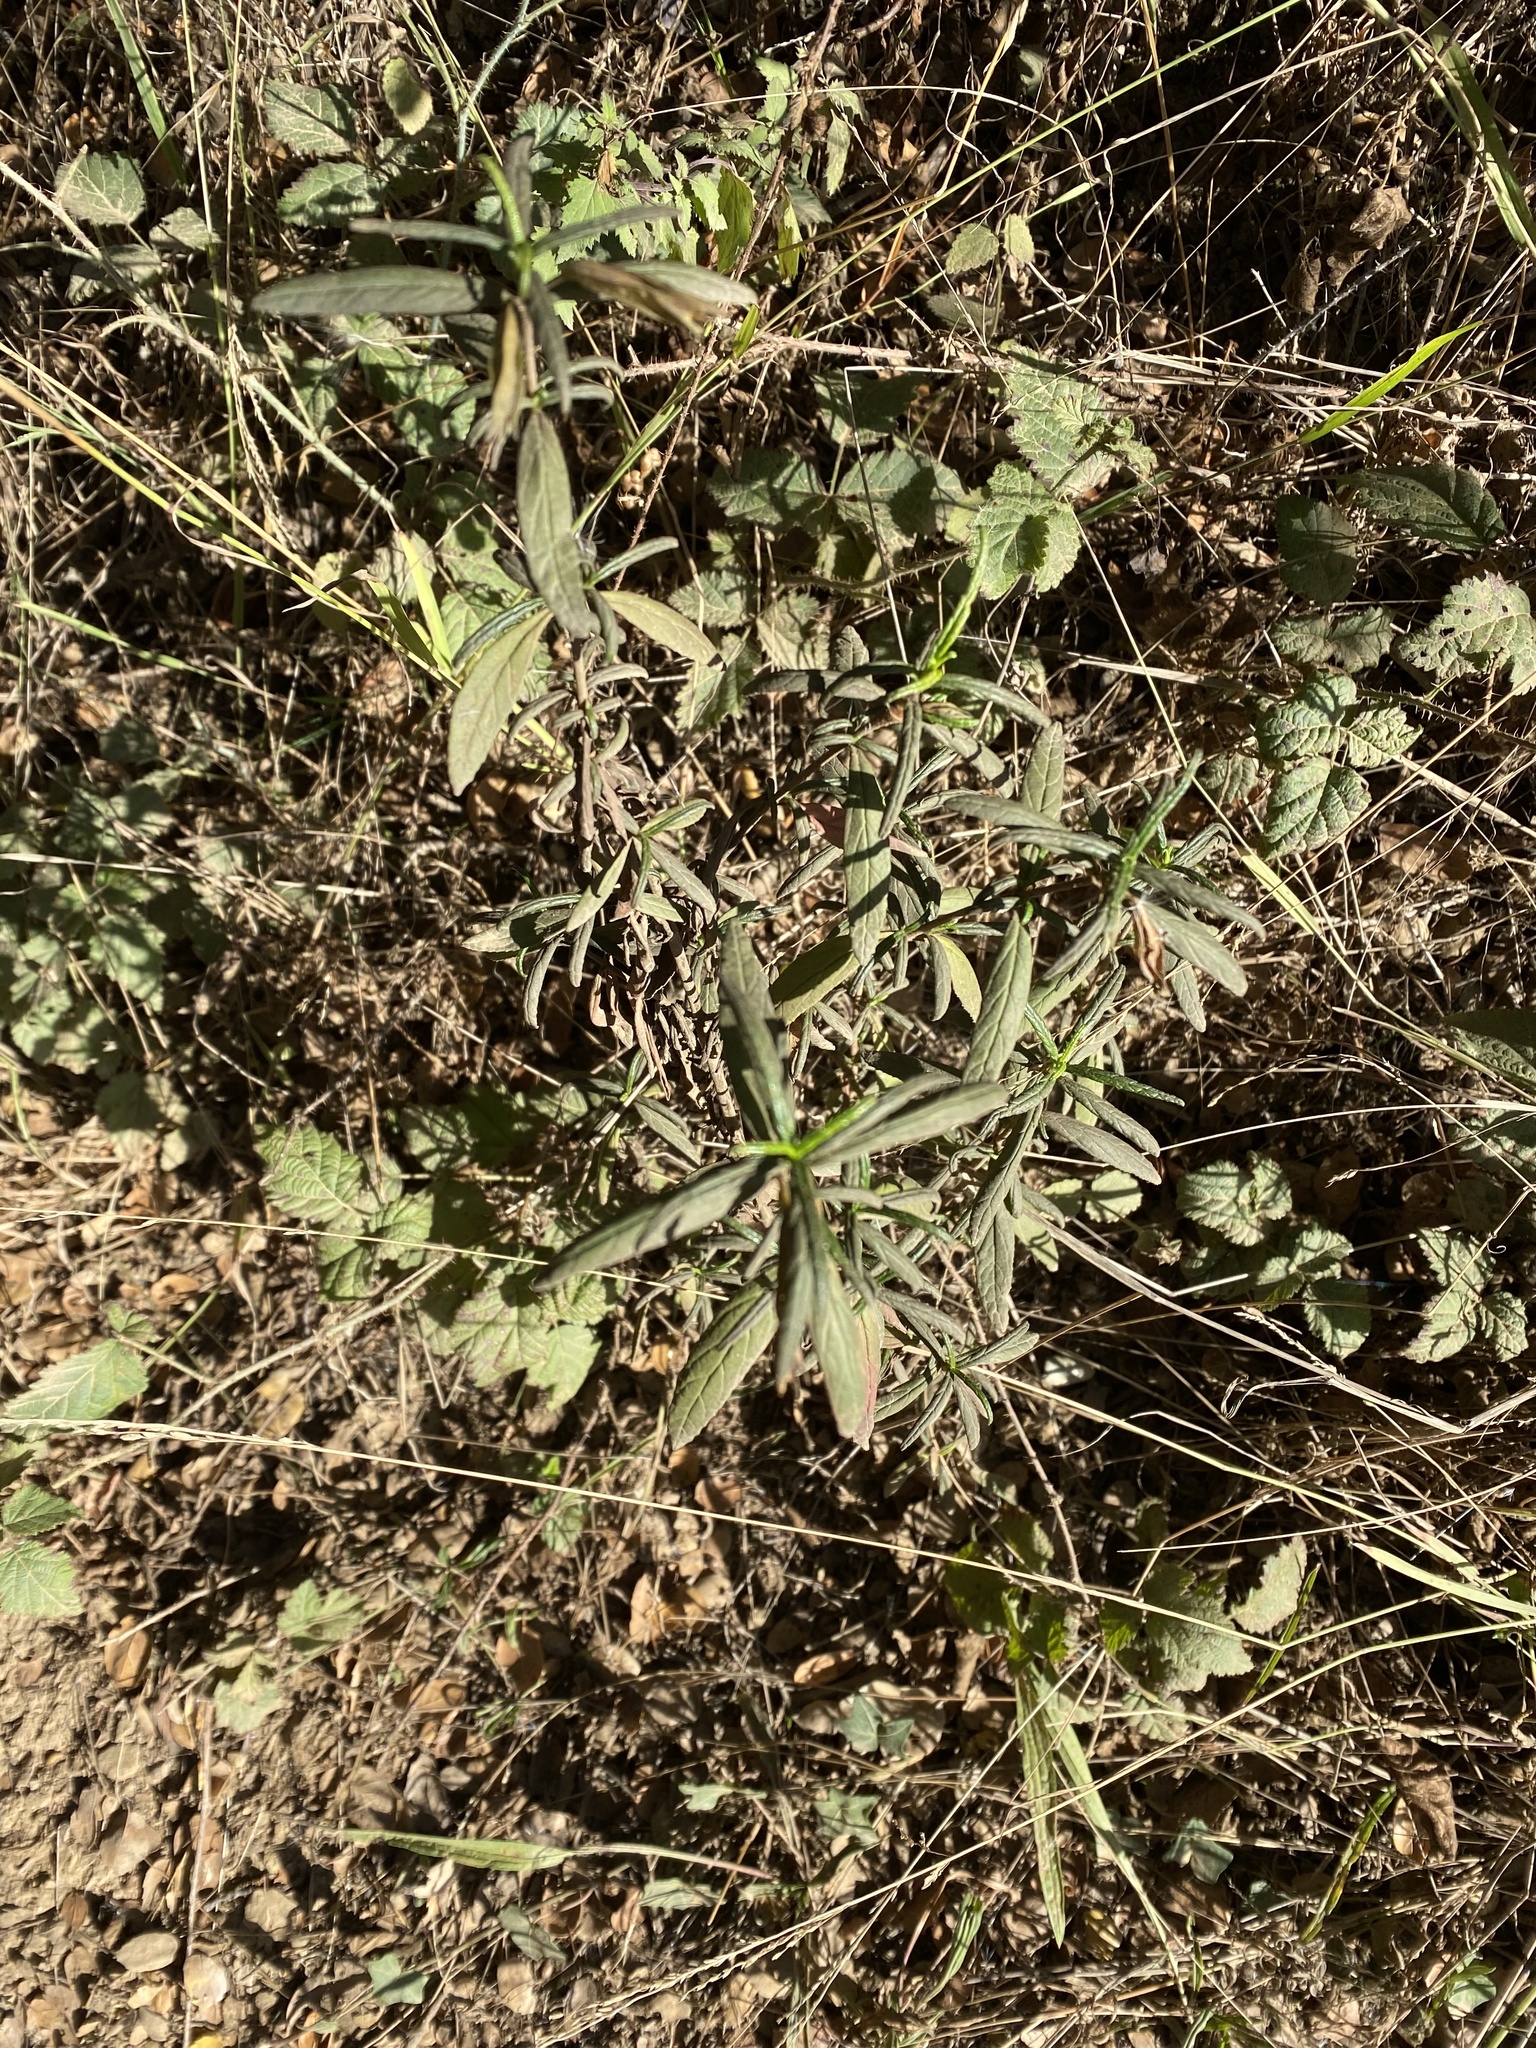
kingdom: Plantae
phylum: Tracheophyta
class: Magnoliopsida
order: Lamiales
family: Phrymaceae
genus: Diplacus
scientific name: Diplacus aurantiacus
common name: Bush monkey-flower
